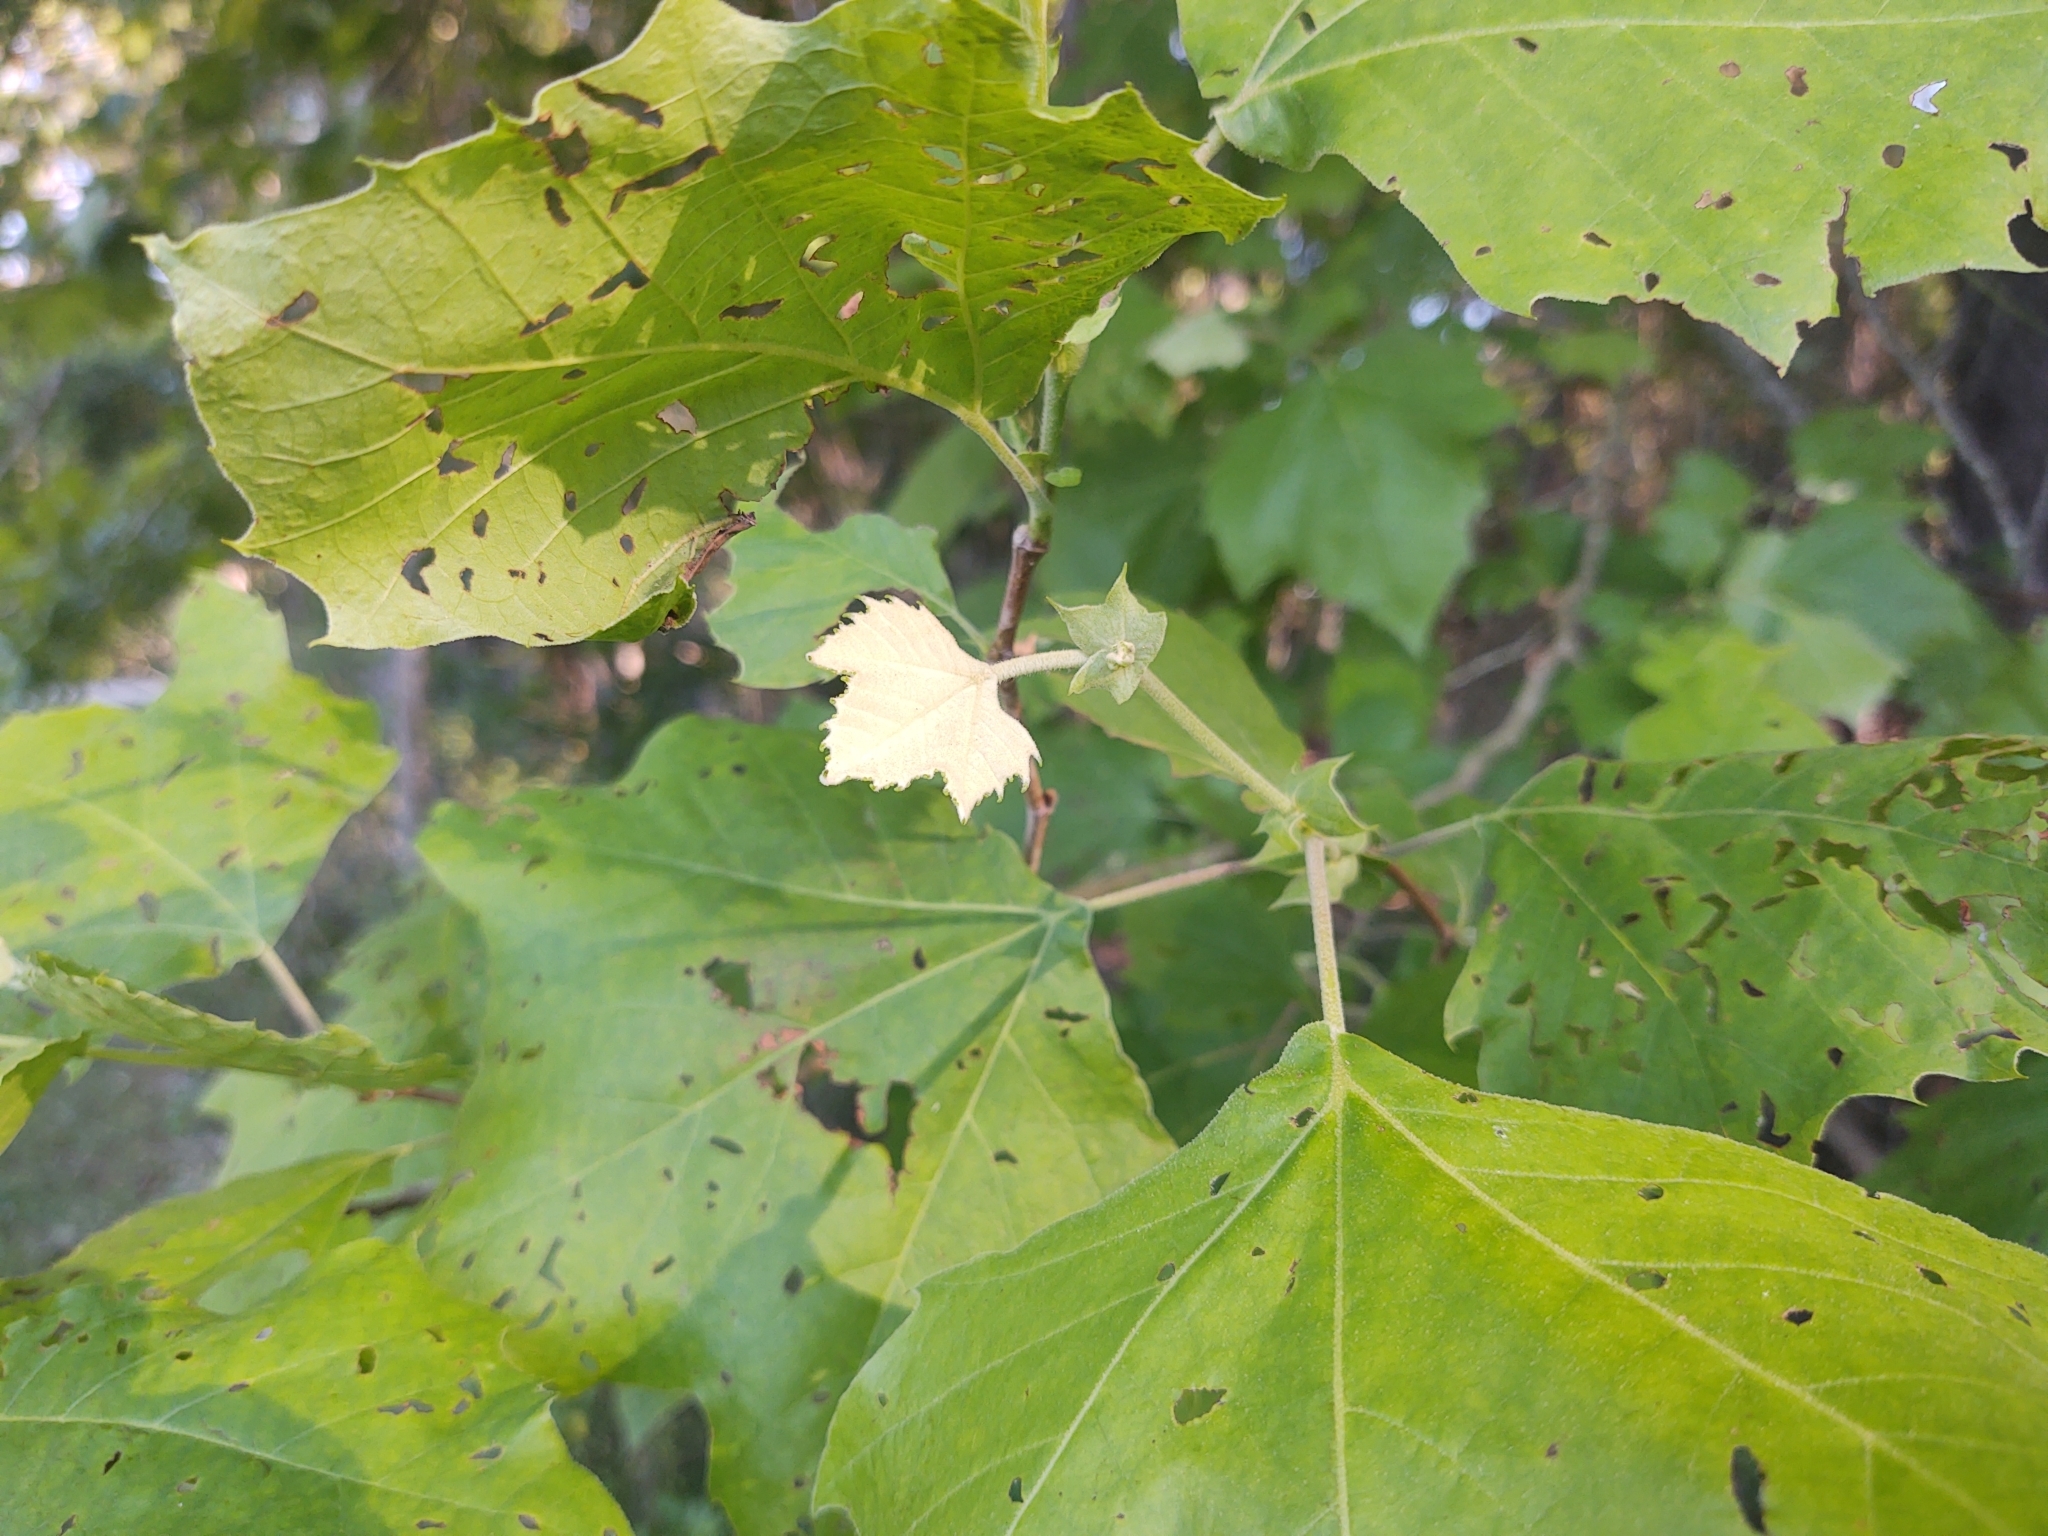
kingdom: Plantae
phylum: Tracheophyta
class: Magnoliopsida
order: Proteales
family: Platanaceae
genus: Platanus
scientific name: Platanus occidentalis
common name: American sycamore
